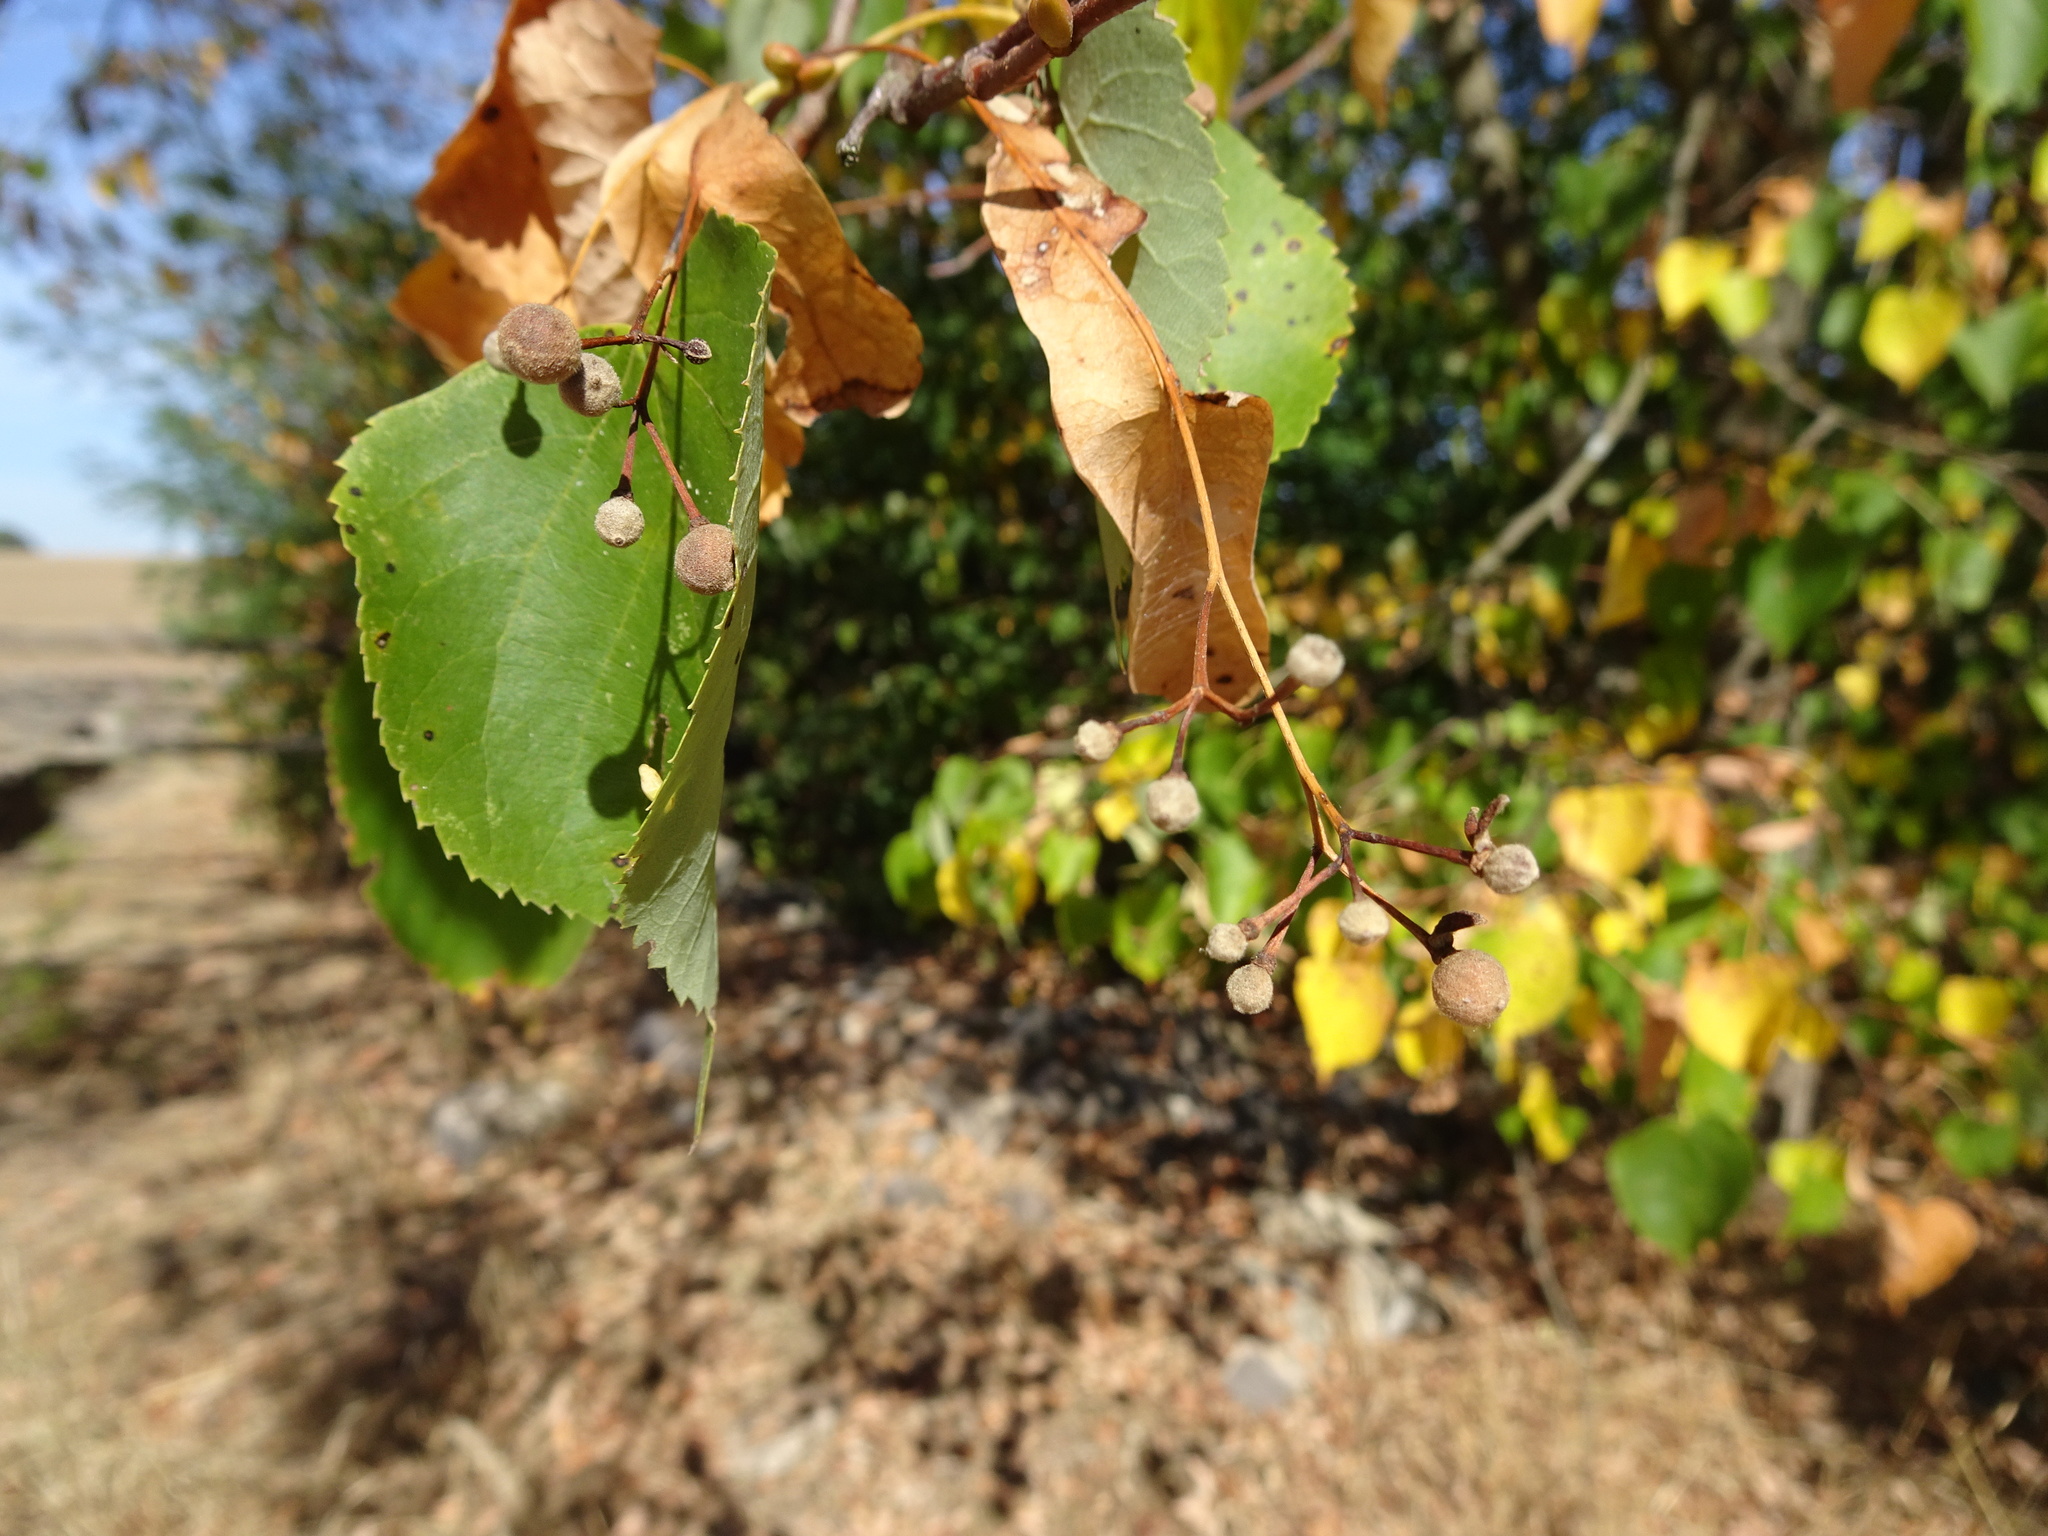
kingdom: Plantae
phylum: Tracheophyta
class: Magnoliopsida
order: Malvales
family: Malvaceae
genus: Tilia
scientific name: Tilia cordata
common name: Small-leaved lime
